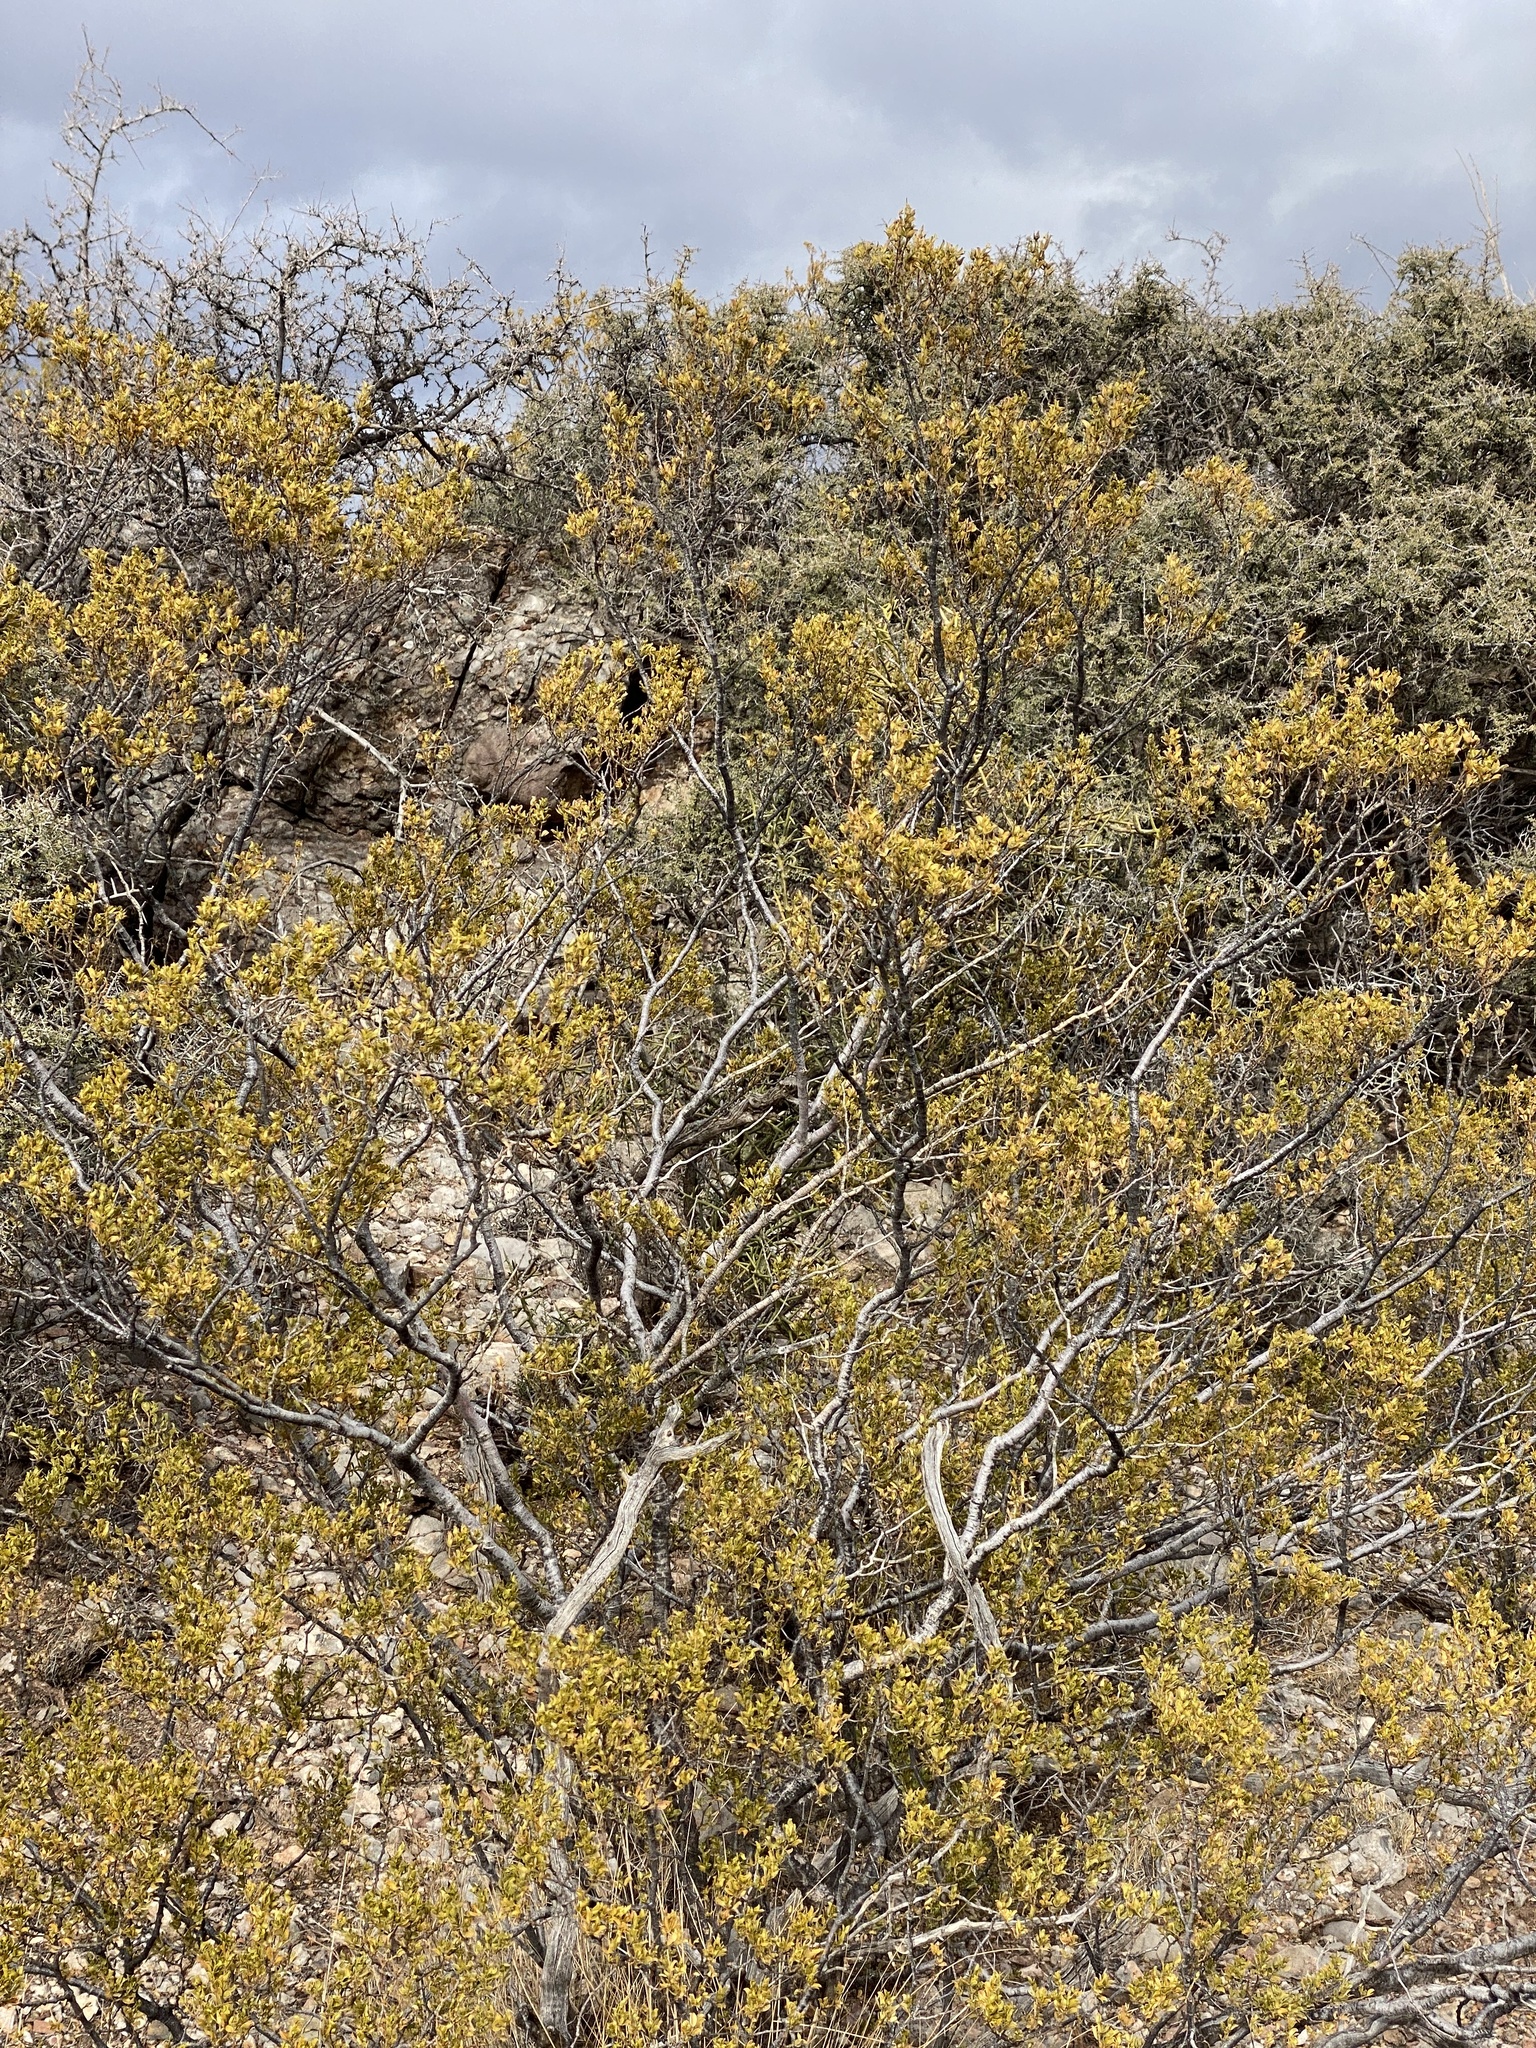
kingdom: Plantae
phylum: Tracheophyta
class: Magnoliopsida
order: Zygophyllales
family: Zygophyllaceae
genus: Larrea
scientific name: Larrea tridentata
